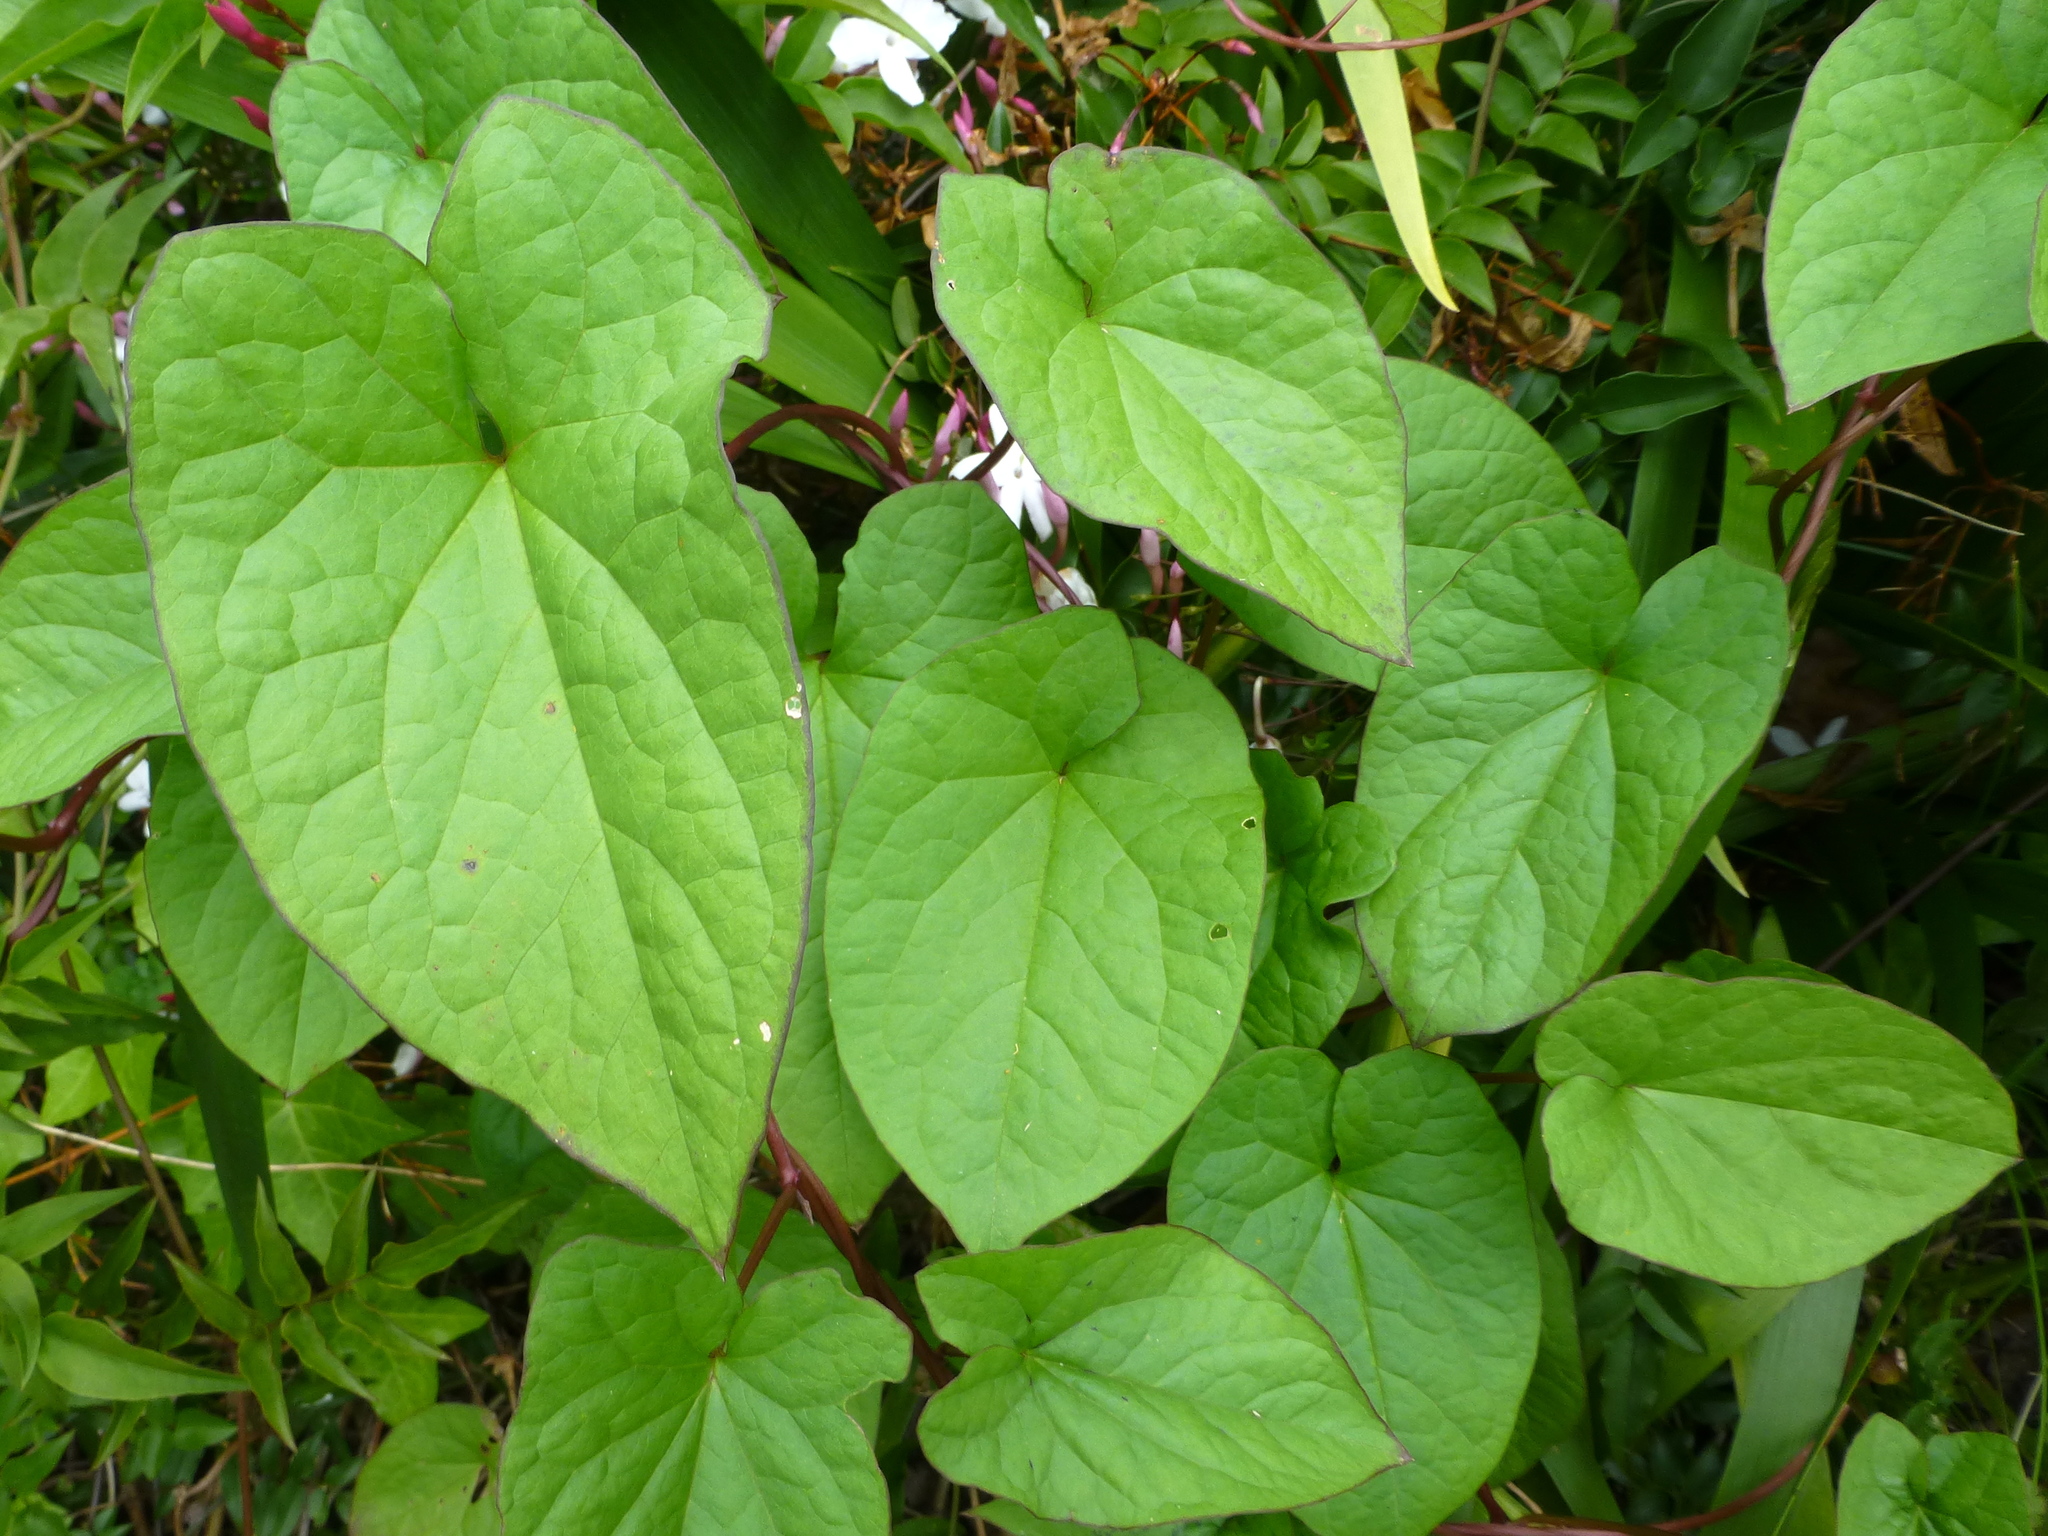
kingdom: Plantae
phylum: Tracheophyta
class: Magnoliopsida
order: Solanales
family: Convolvulaceae
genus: Calystegia
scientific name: Calystegia silvatica
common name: Large bindweed
